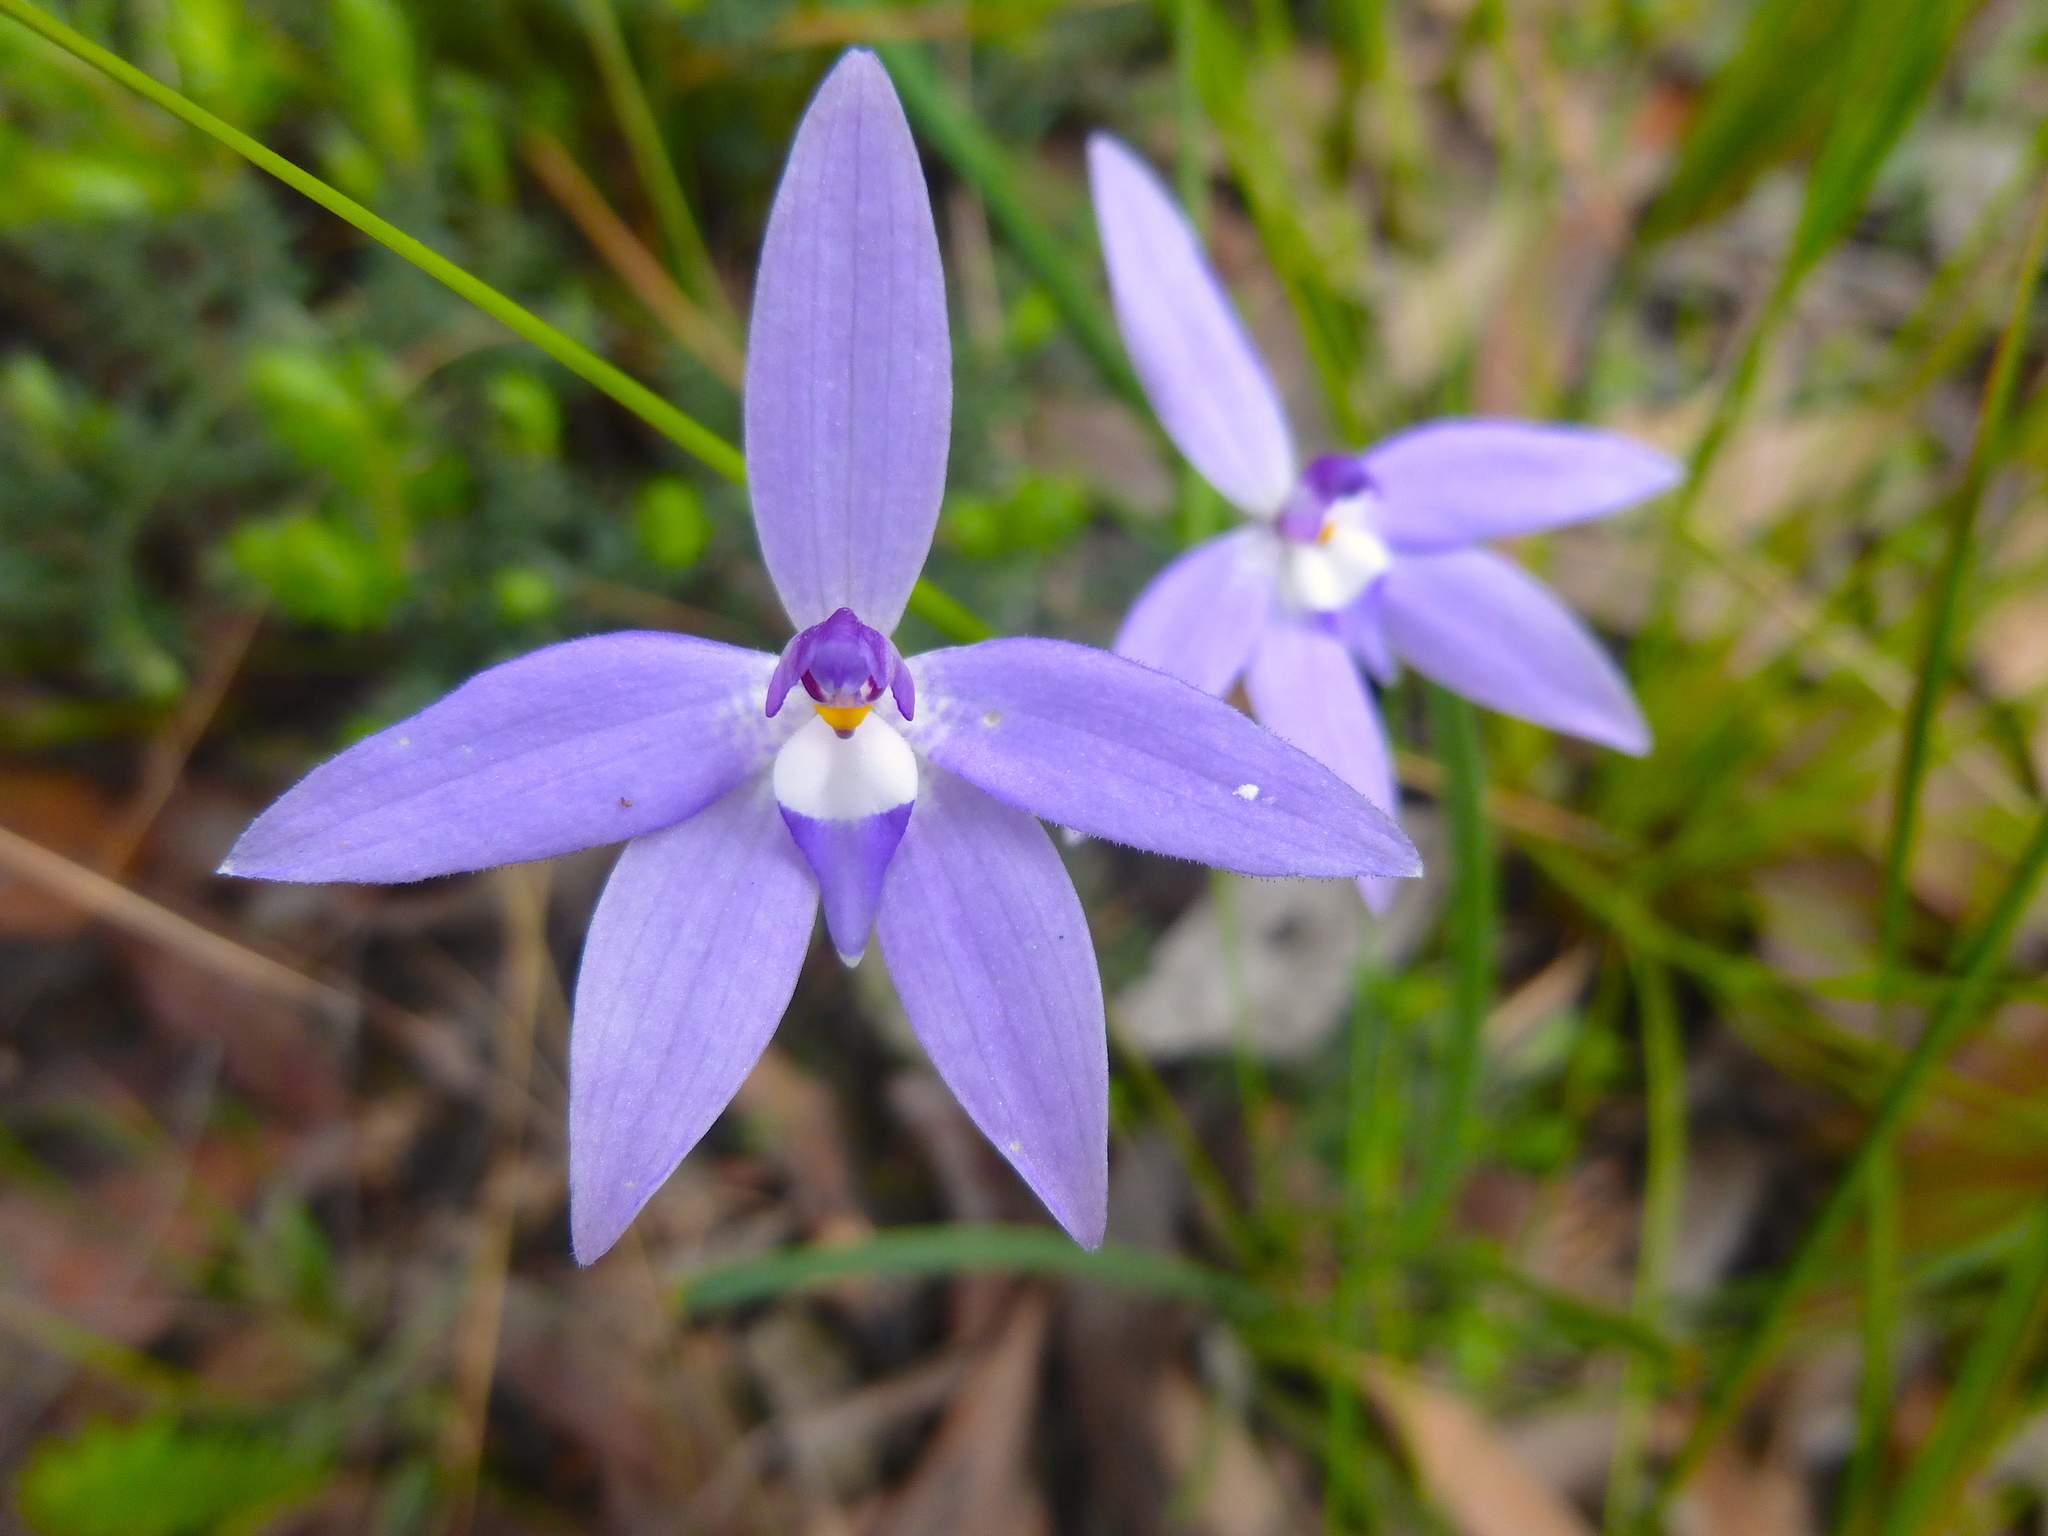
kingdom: Plantae
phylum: Tracheophyta
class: Liliopsida
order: Asparagales
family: Orchidaceae
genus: Caladenia
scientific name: Caladenia major
